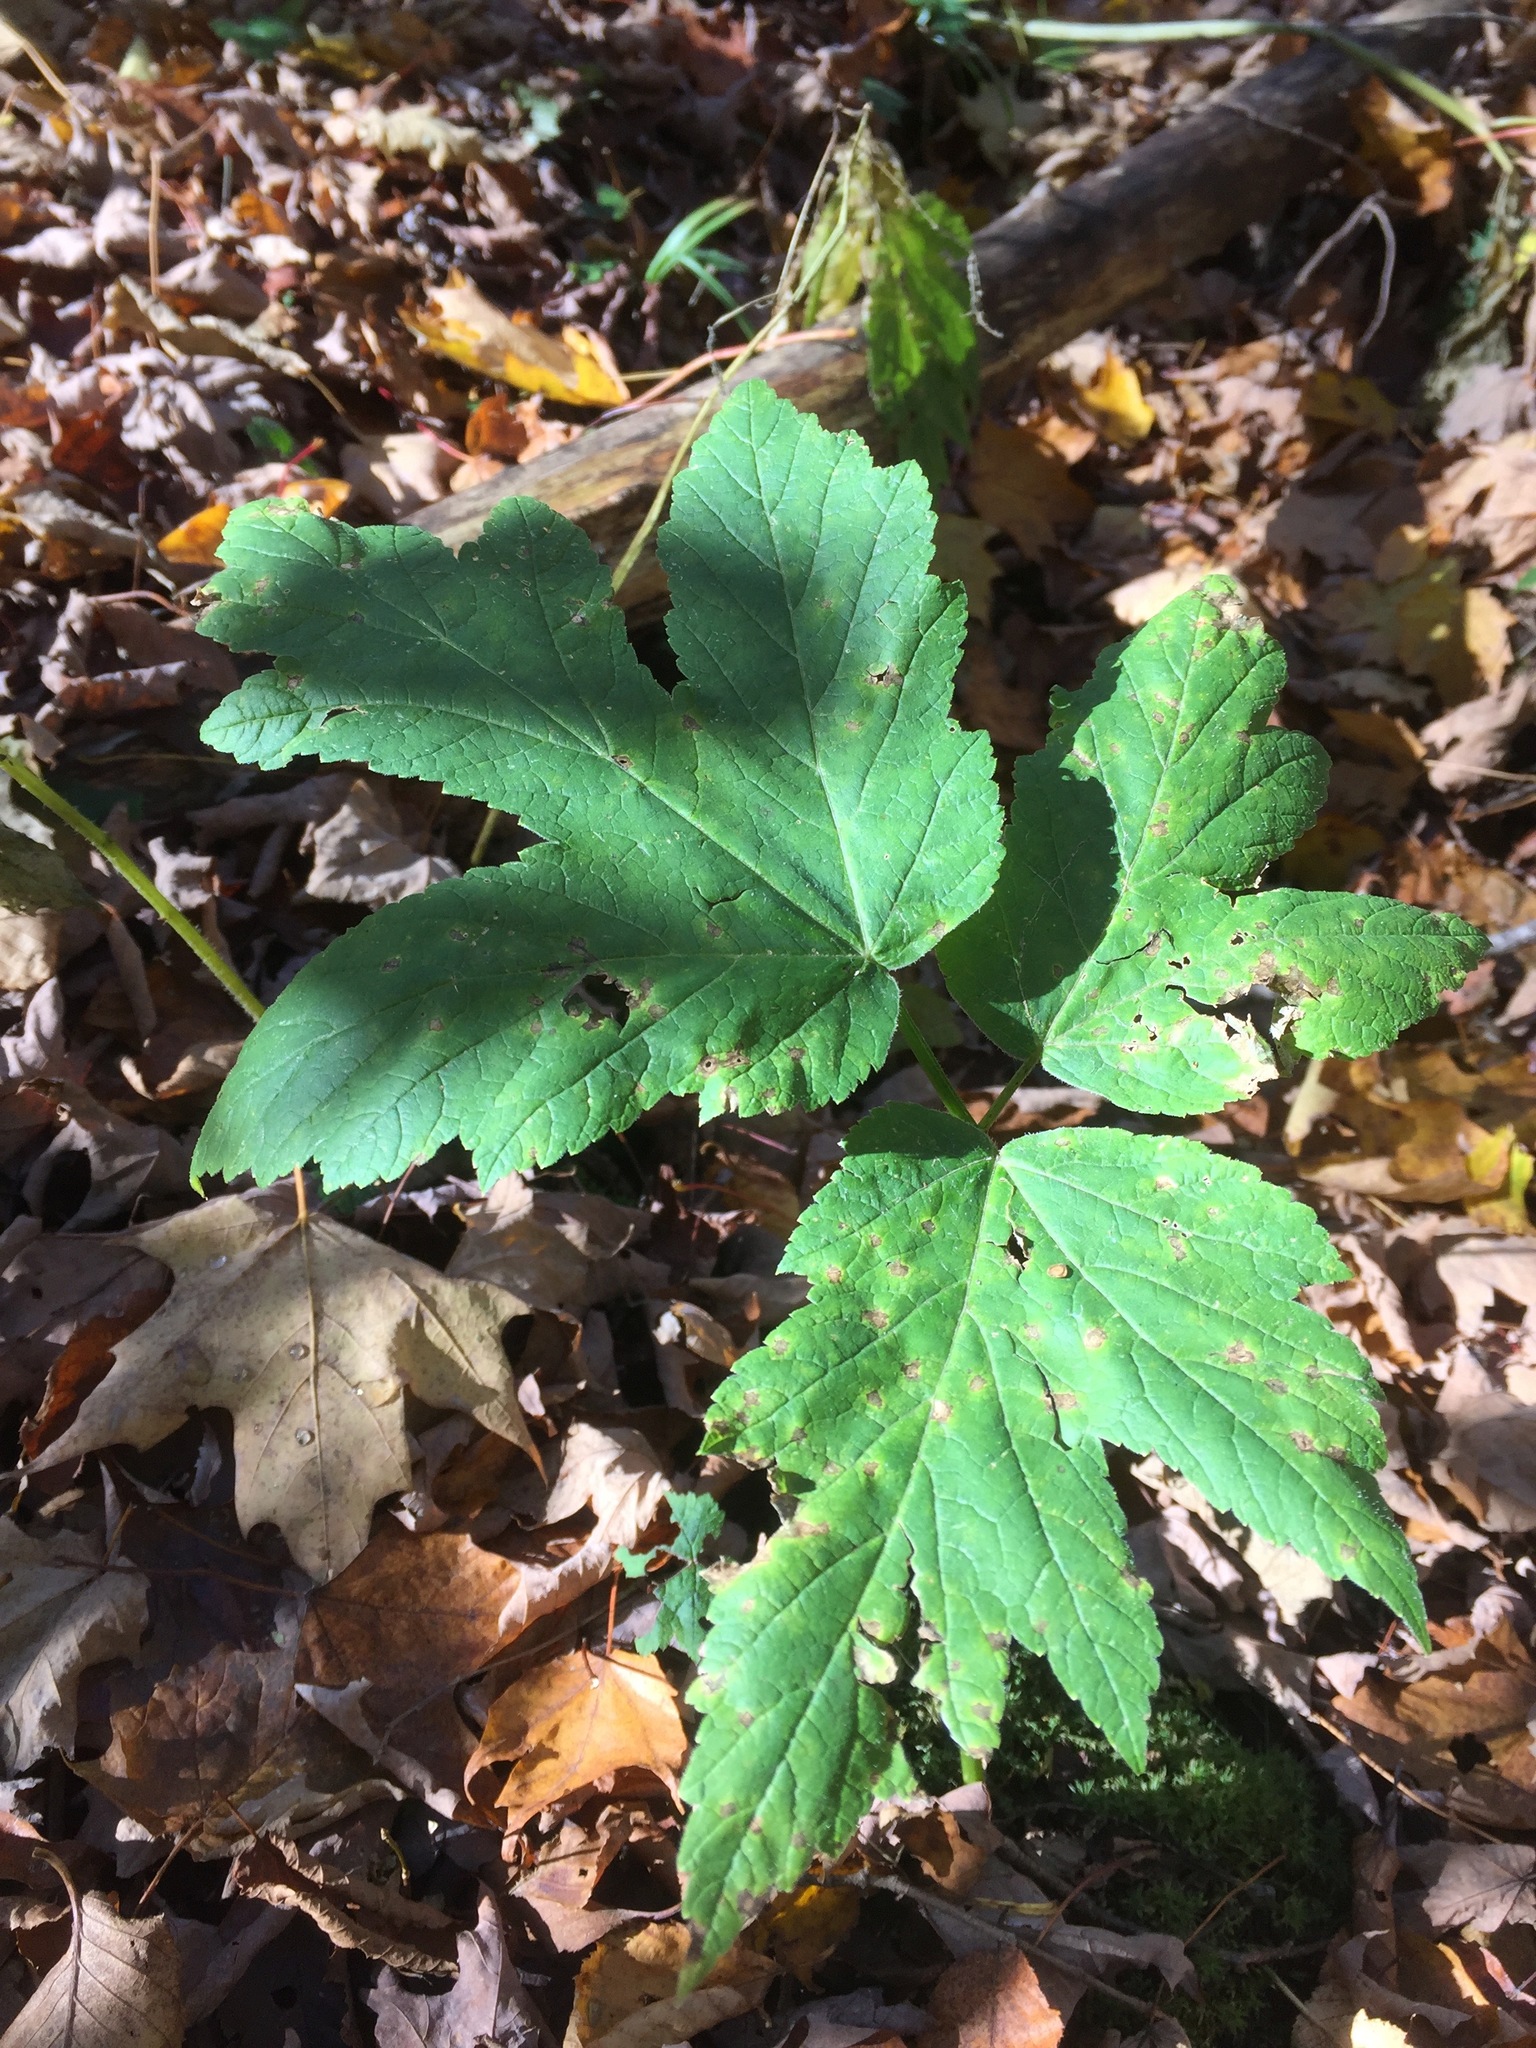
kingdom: Plantae
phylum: Tracheophyta
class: Magnoliopsida
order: Apiales
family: Apiaceae
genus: Heracleum
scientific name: Heracleum maximum
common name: American cow parsnip
